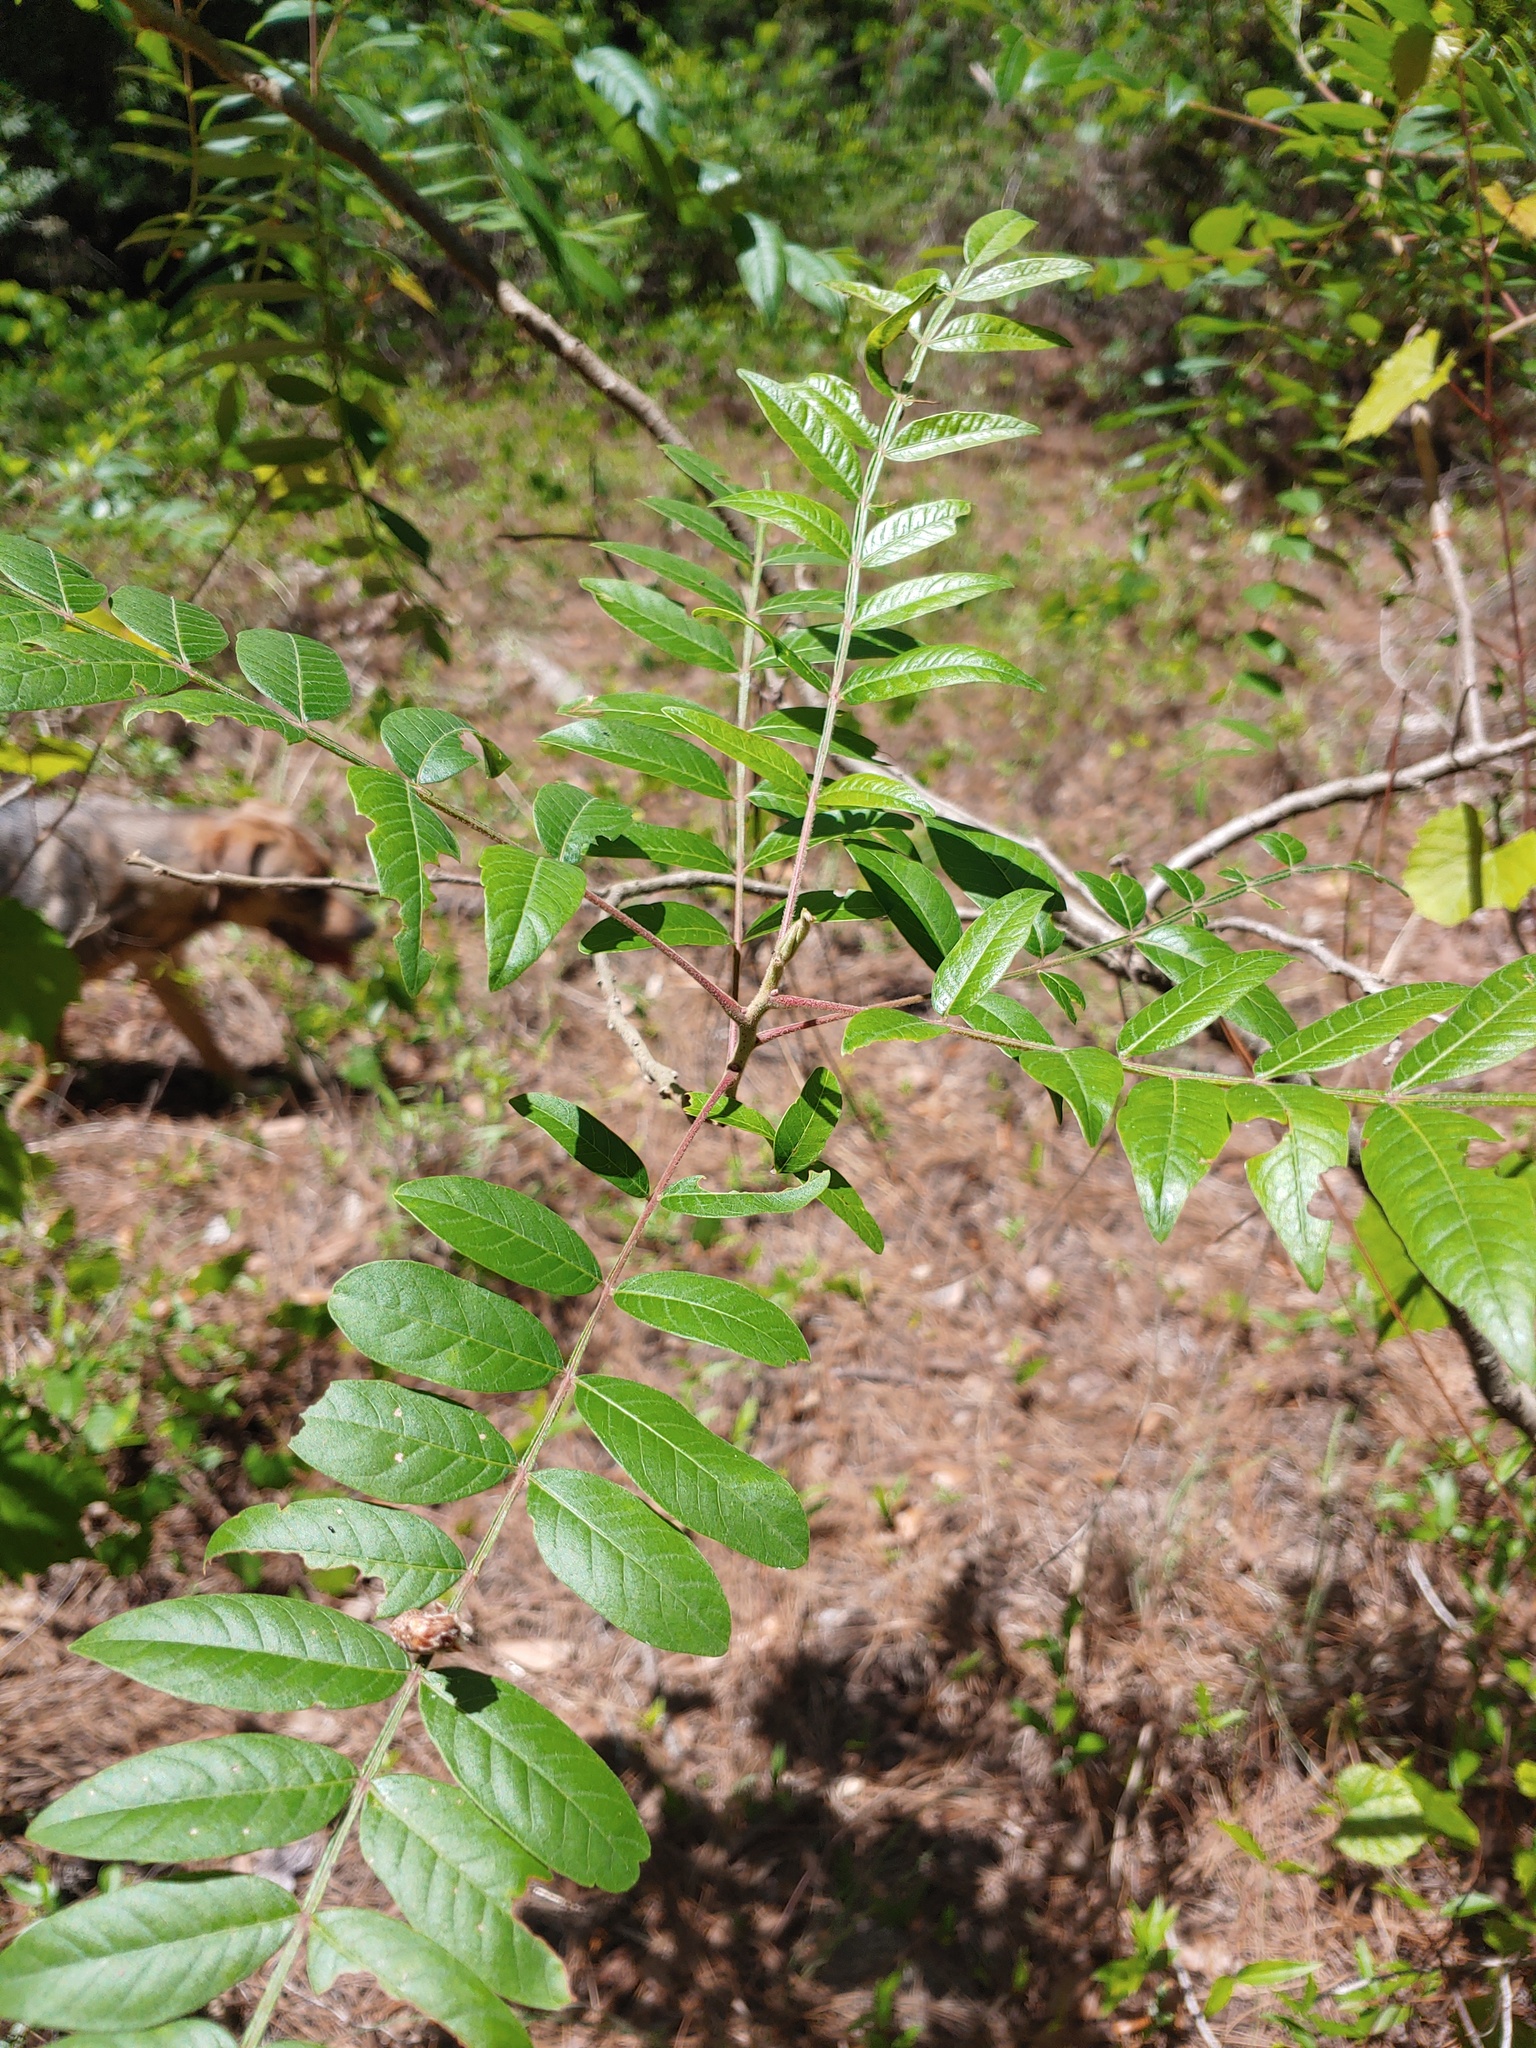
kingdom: Plantae
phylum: Tracheophyta
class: Magnoliopsida
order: Sapindales
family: Anacardiaceae
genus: Rhus
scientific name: Rhus copallina
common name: Shining sumac
